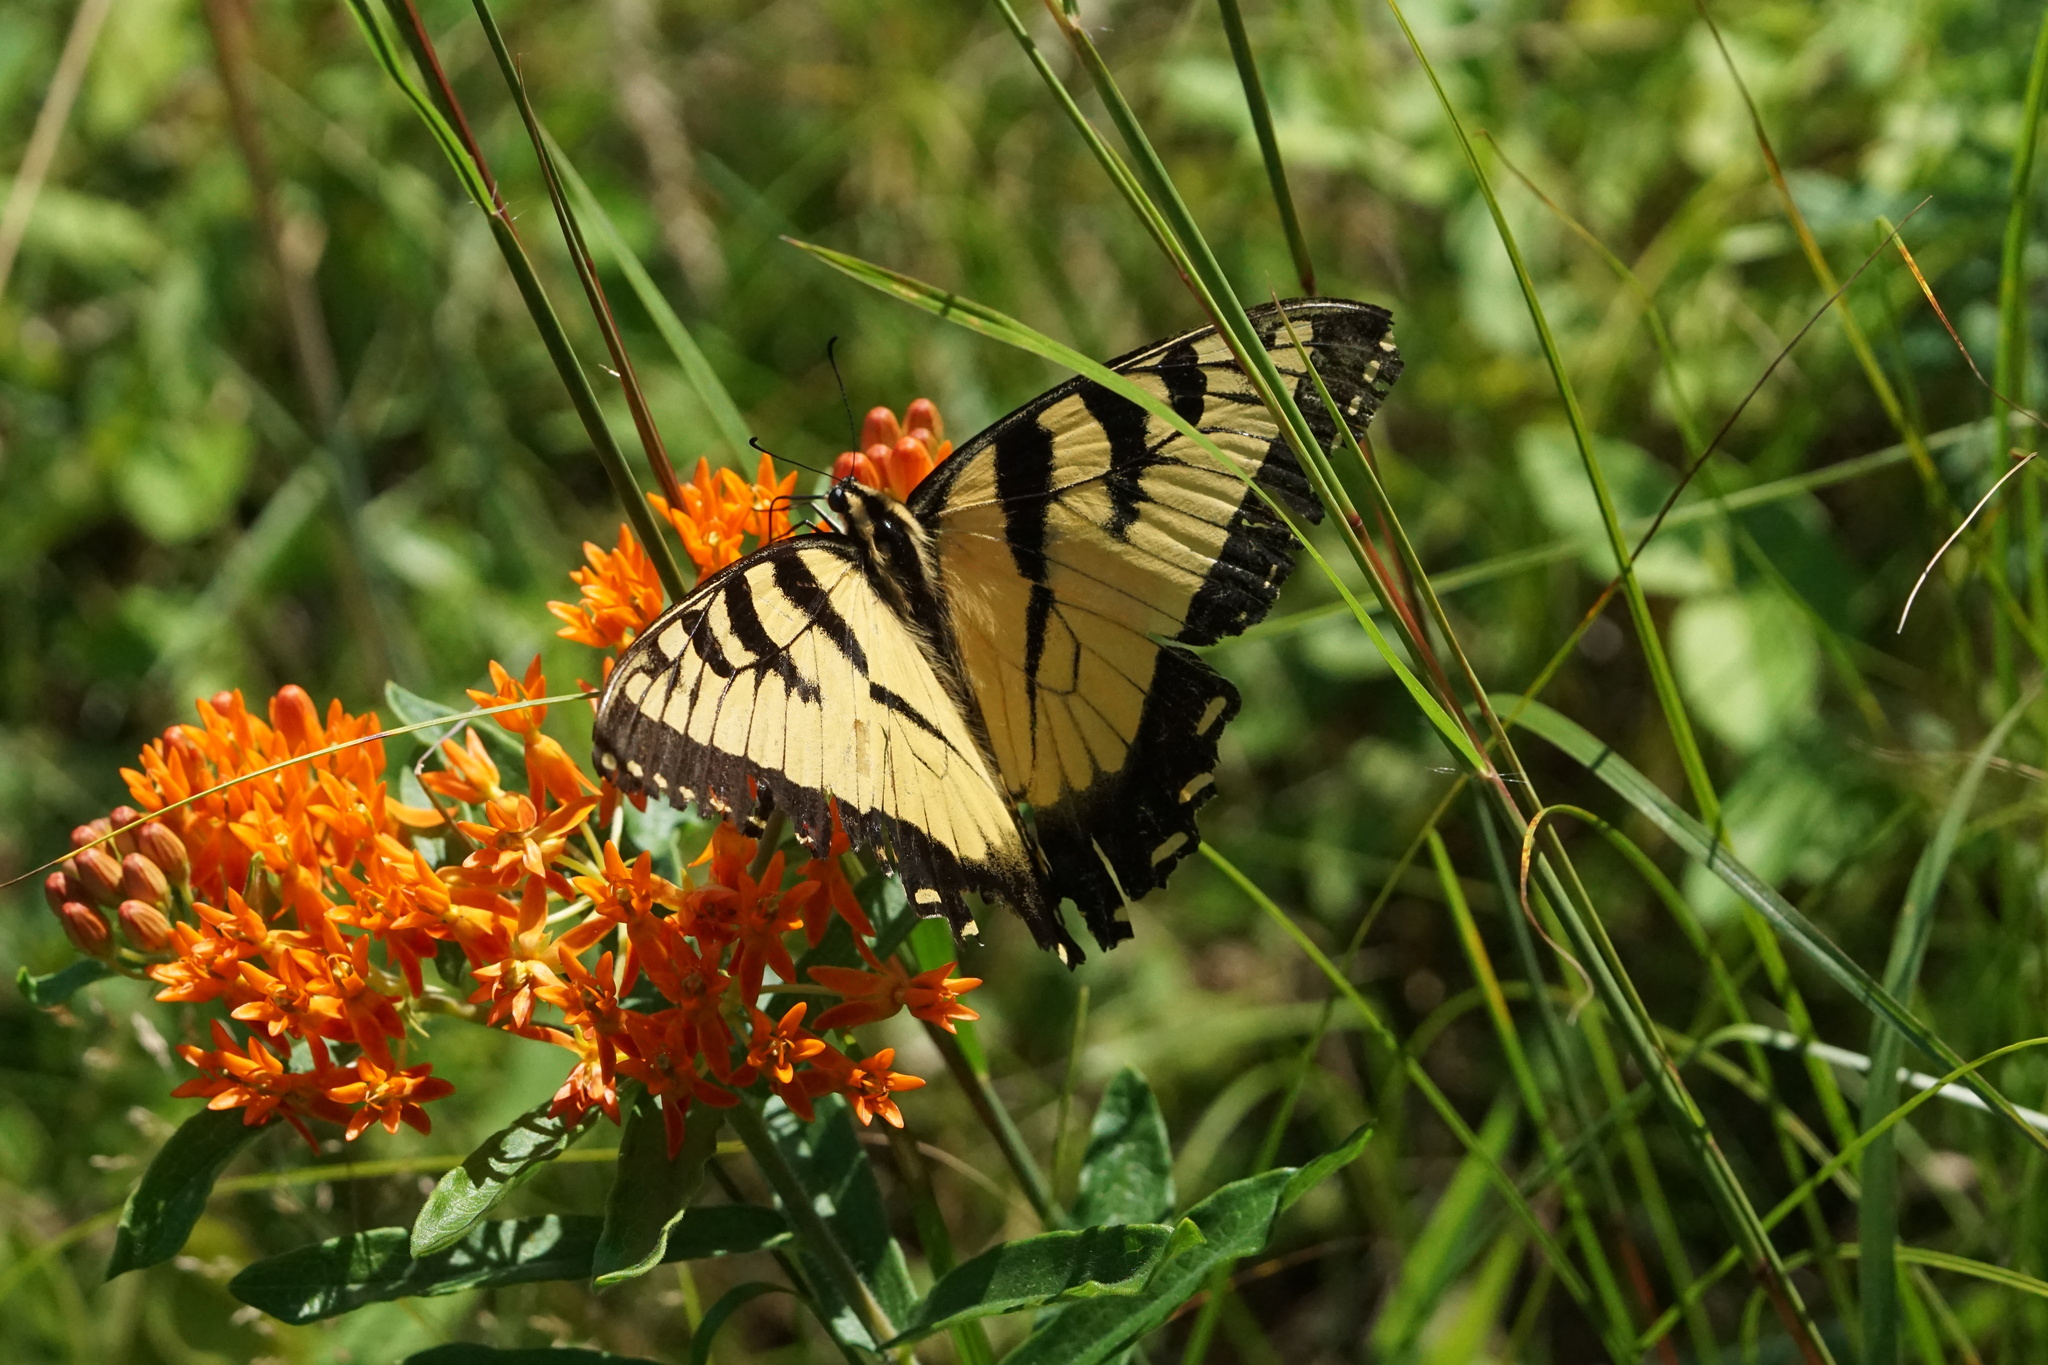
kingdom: Animalia
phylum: Arthropoda
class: Insecta
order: Lepidoptera
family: Papilionidae
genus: Papilio
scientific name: Papilio glaucus
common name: Tiger swallowtail
